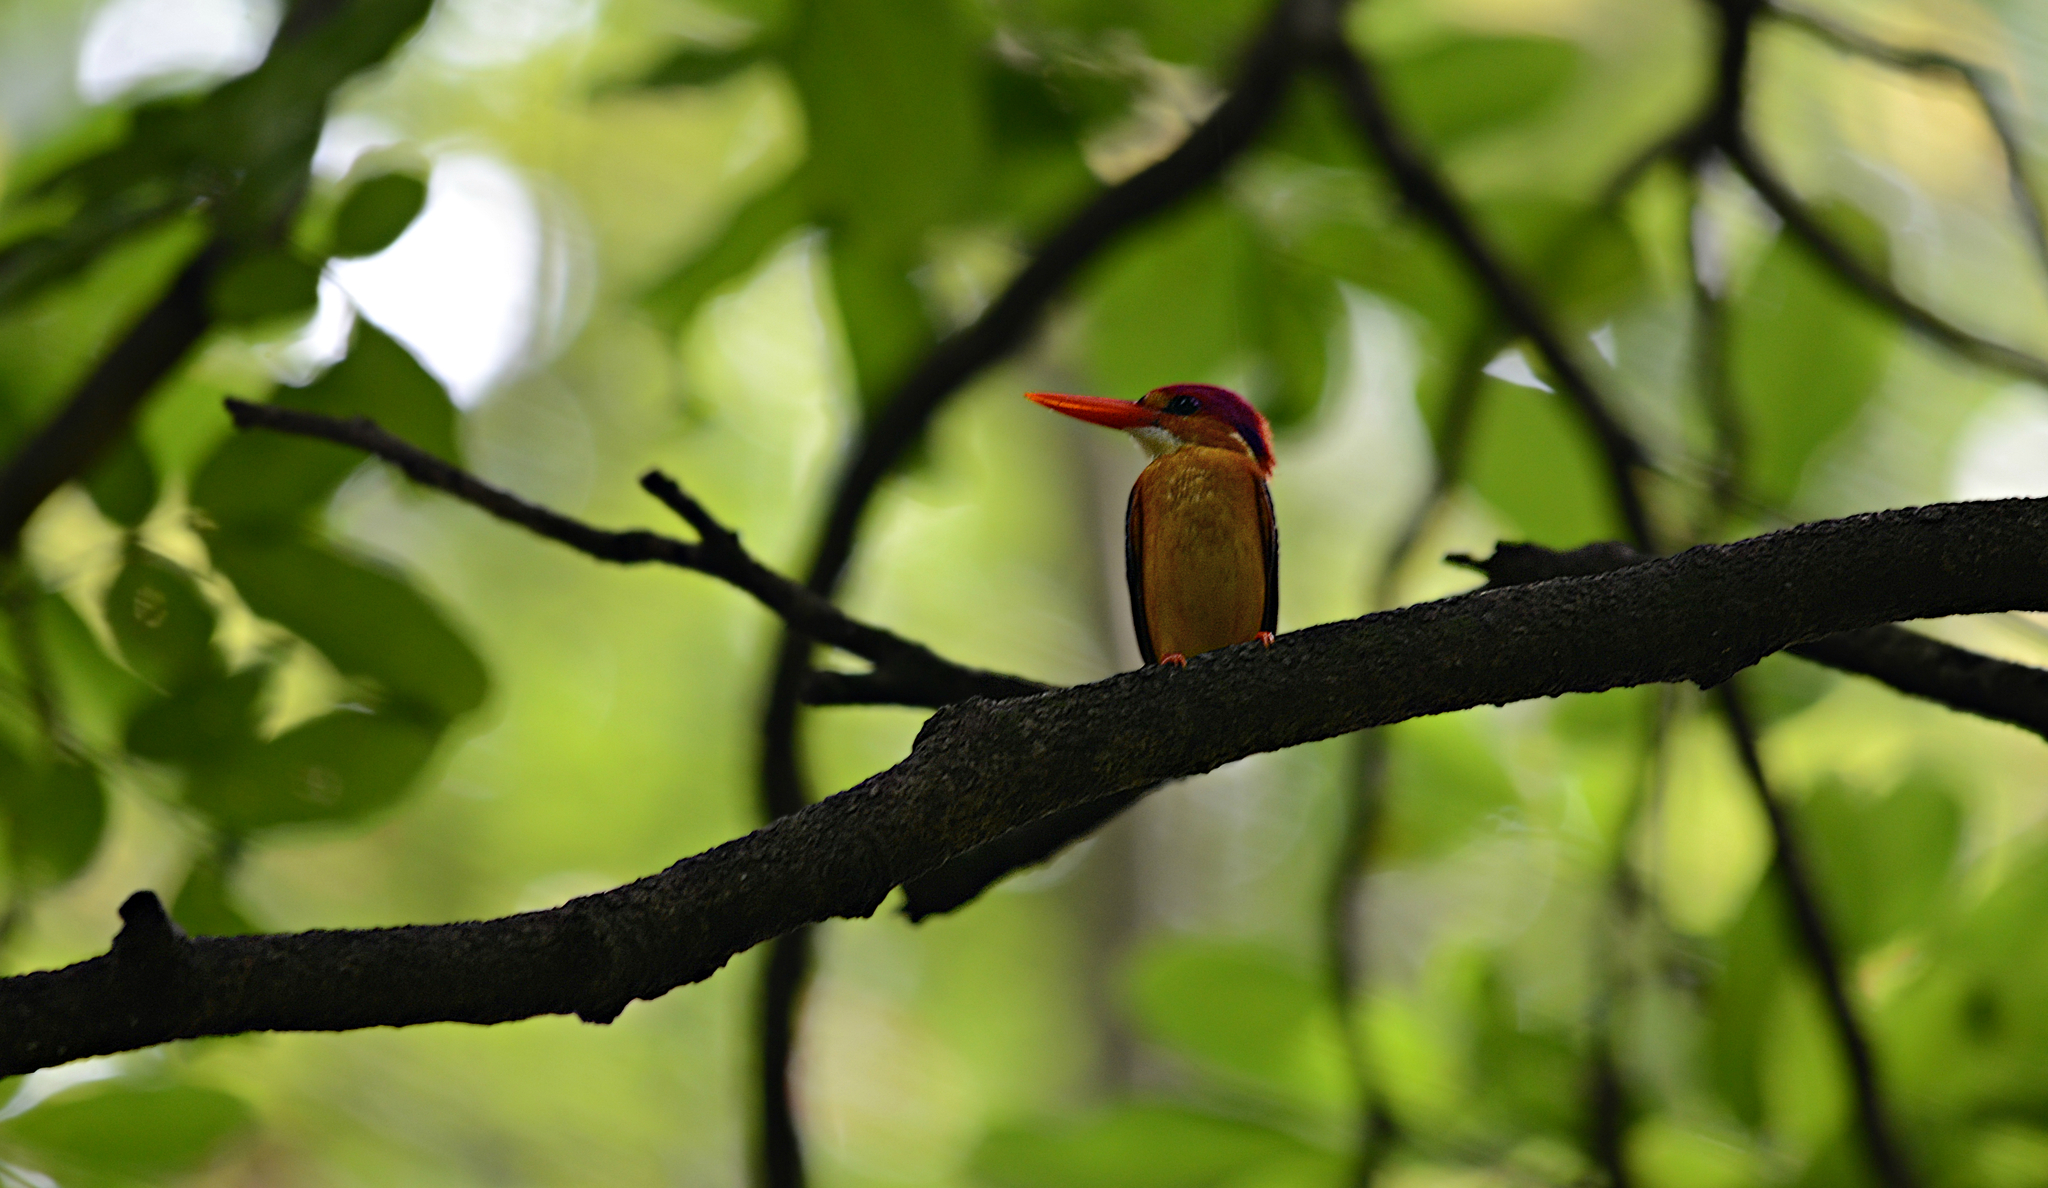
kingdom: Animalia
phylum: Chordata
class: Aves
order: Coraciiformes
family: Alcedinidae
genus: Ceyx
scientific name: Ceyx erithaca
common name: Oriental dwarf kingfisher
